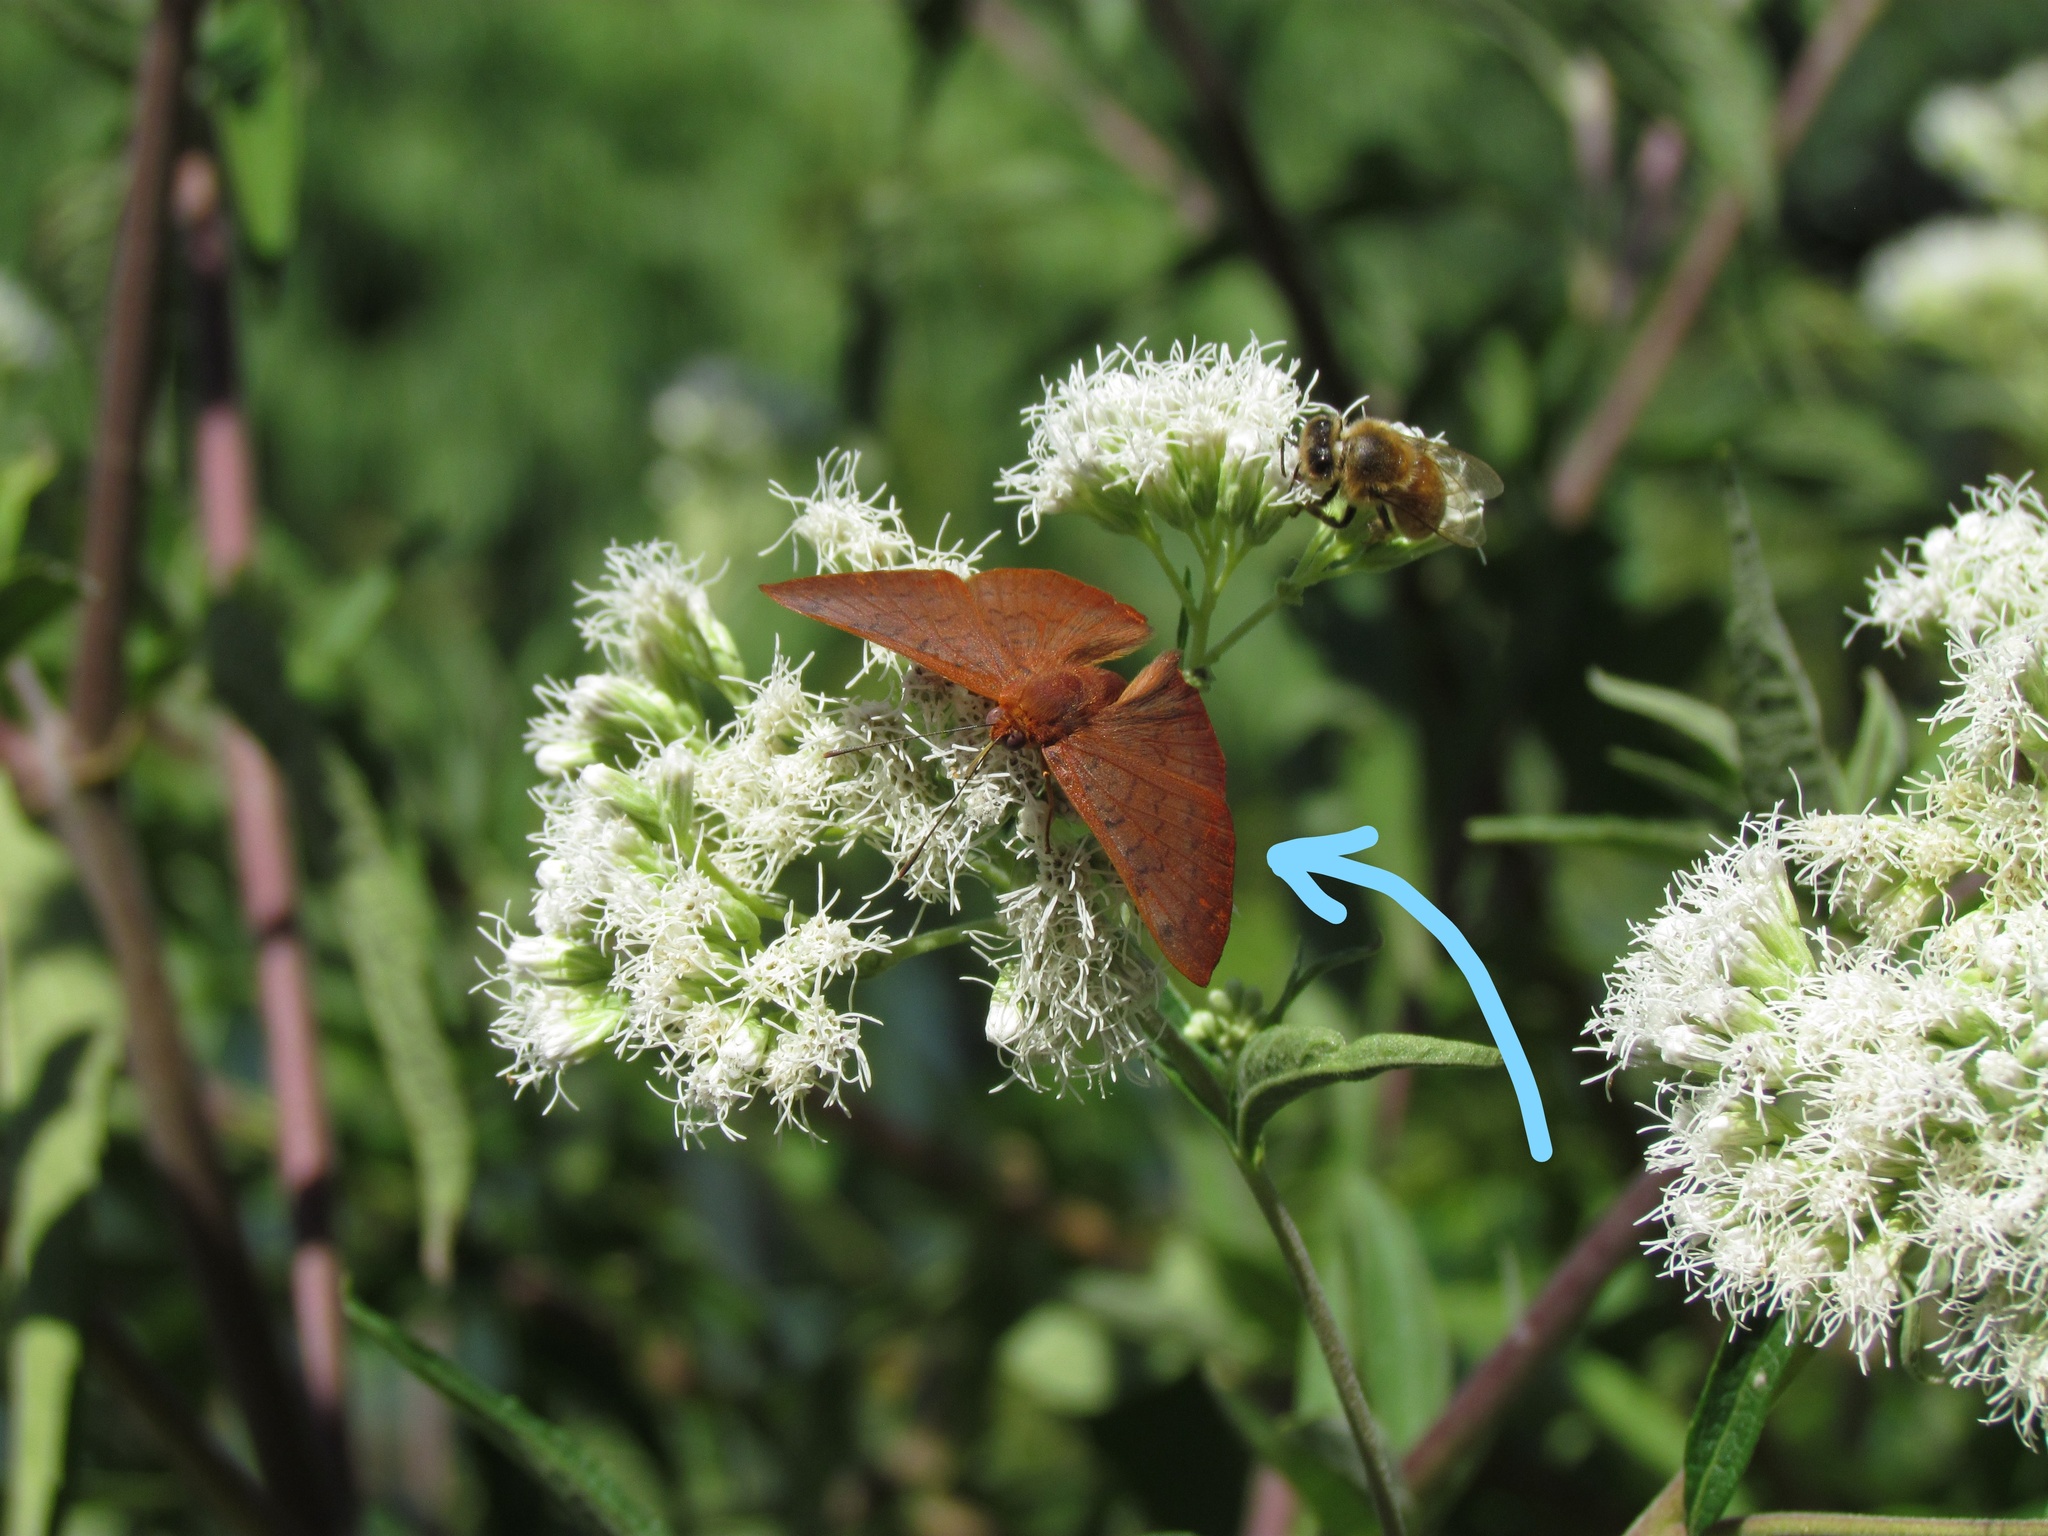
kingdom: Animalia
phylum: Arthropoda
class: Insecta
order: Lepidoptera
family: Lycaenidae
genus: Emesis
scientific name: Emesis russula
